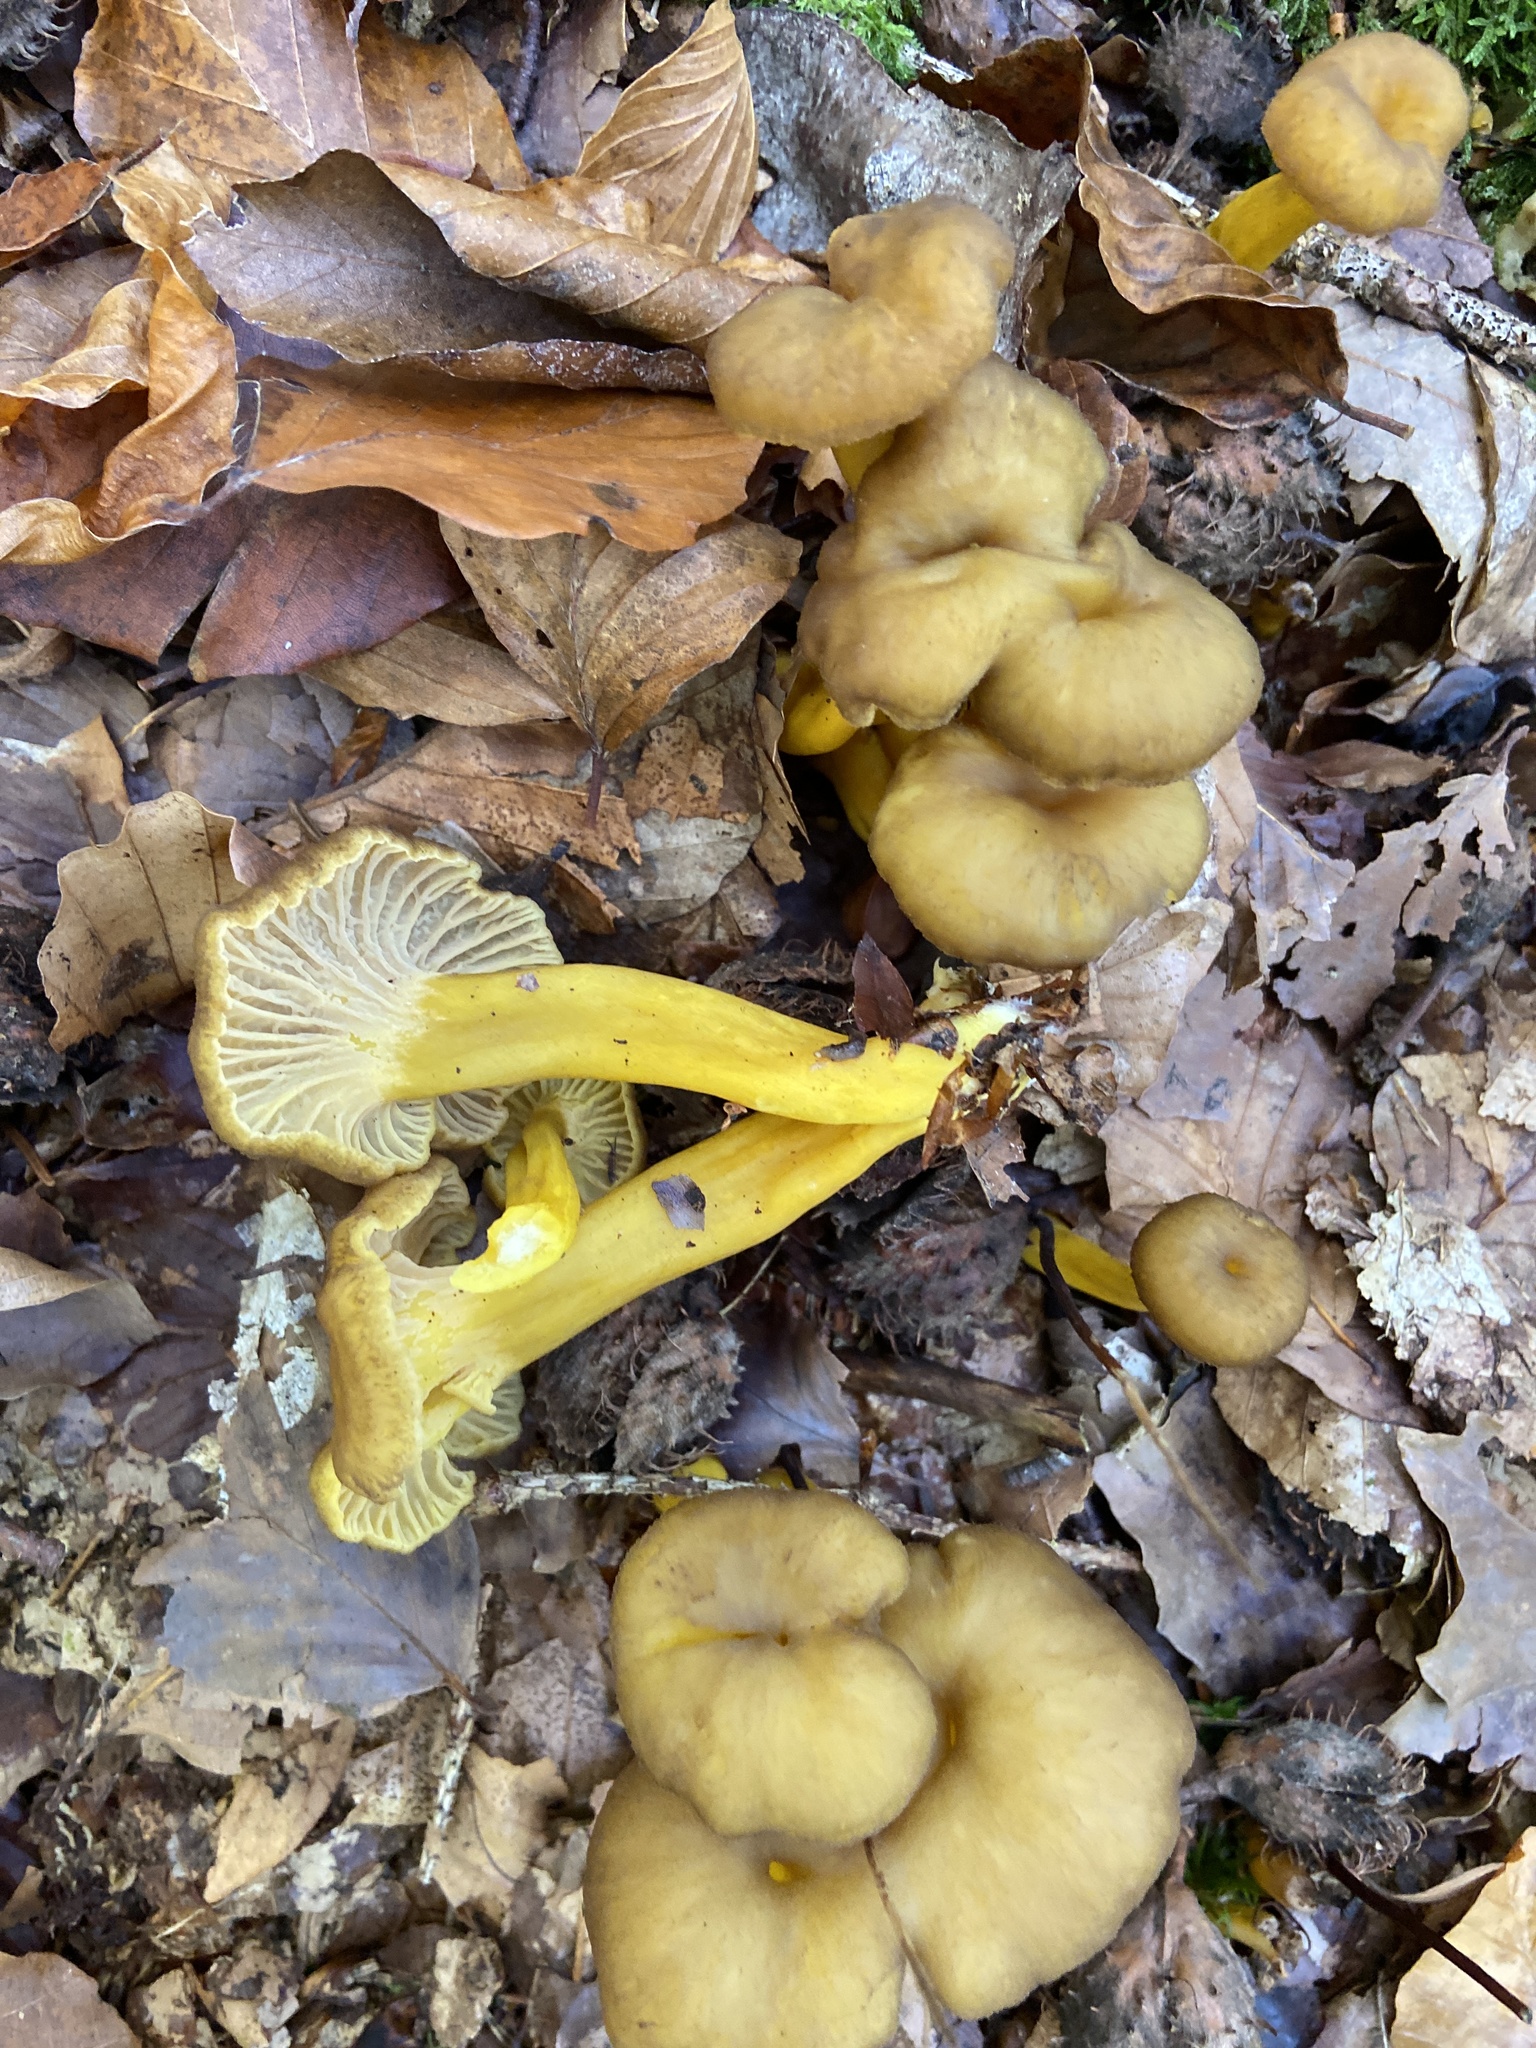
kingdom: Fungi
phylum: Basidiomycota
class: Agaricomycetes
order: Cantharellales
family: Hydnaceae
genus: Craterellus
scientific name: Craterellus tubaeformis
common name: Yellowfoot
